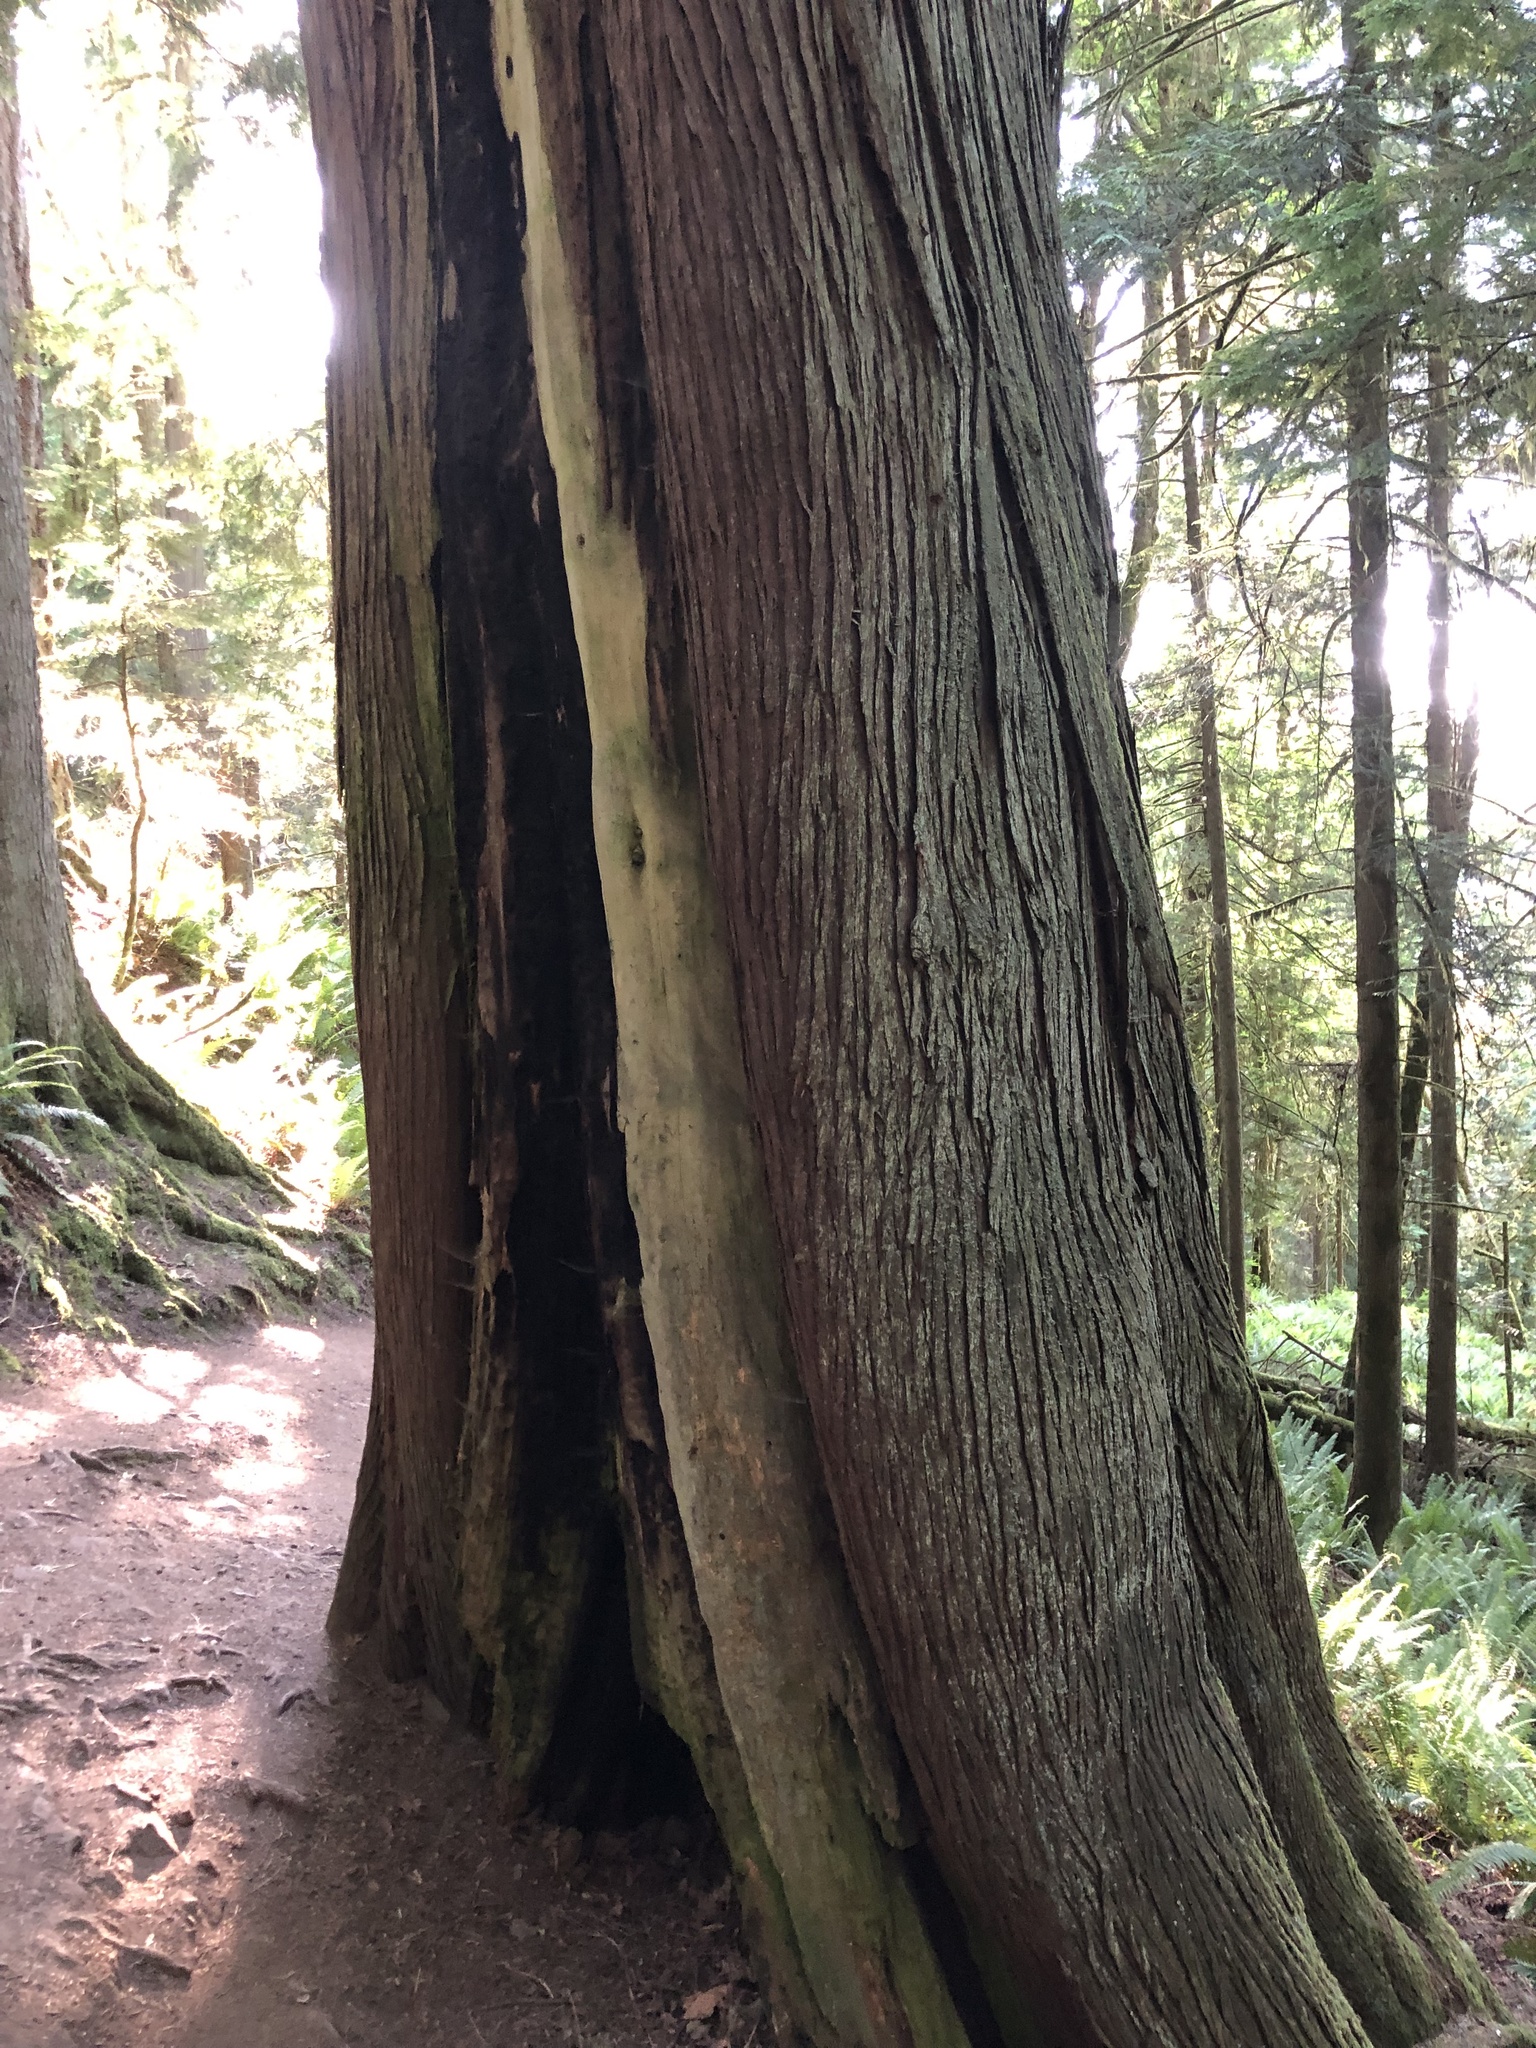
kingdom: Plantae
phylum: Tracheophyta
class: Pinopsida
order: Pinales
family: Cupressaceae
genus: Thuja
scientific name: Thuja plicata
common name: Western red-cedar
